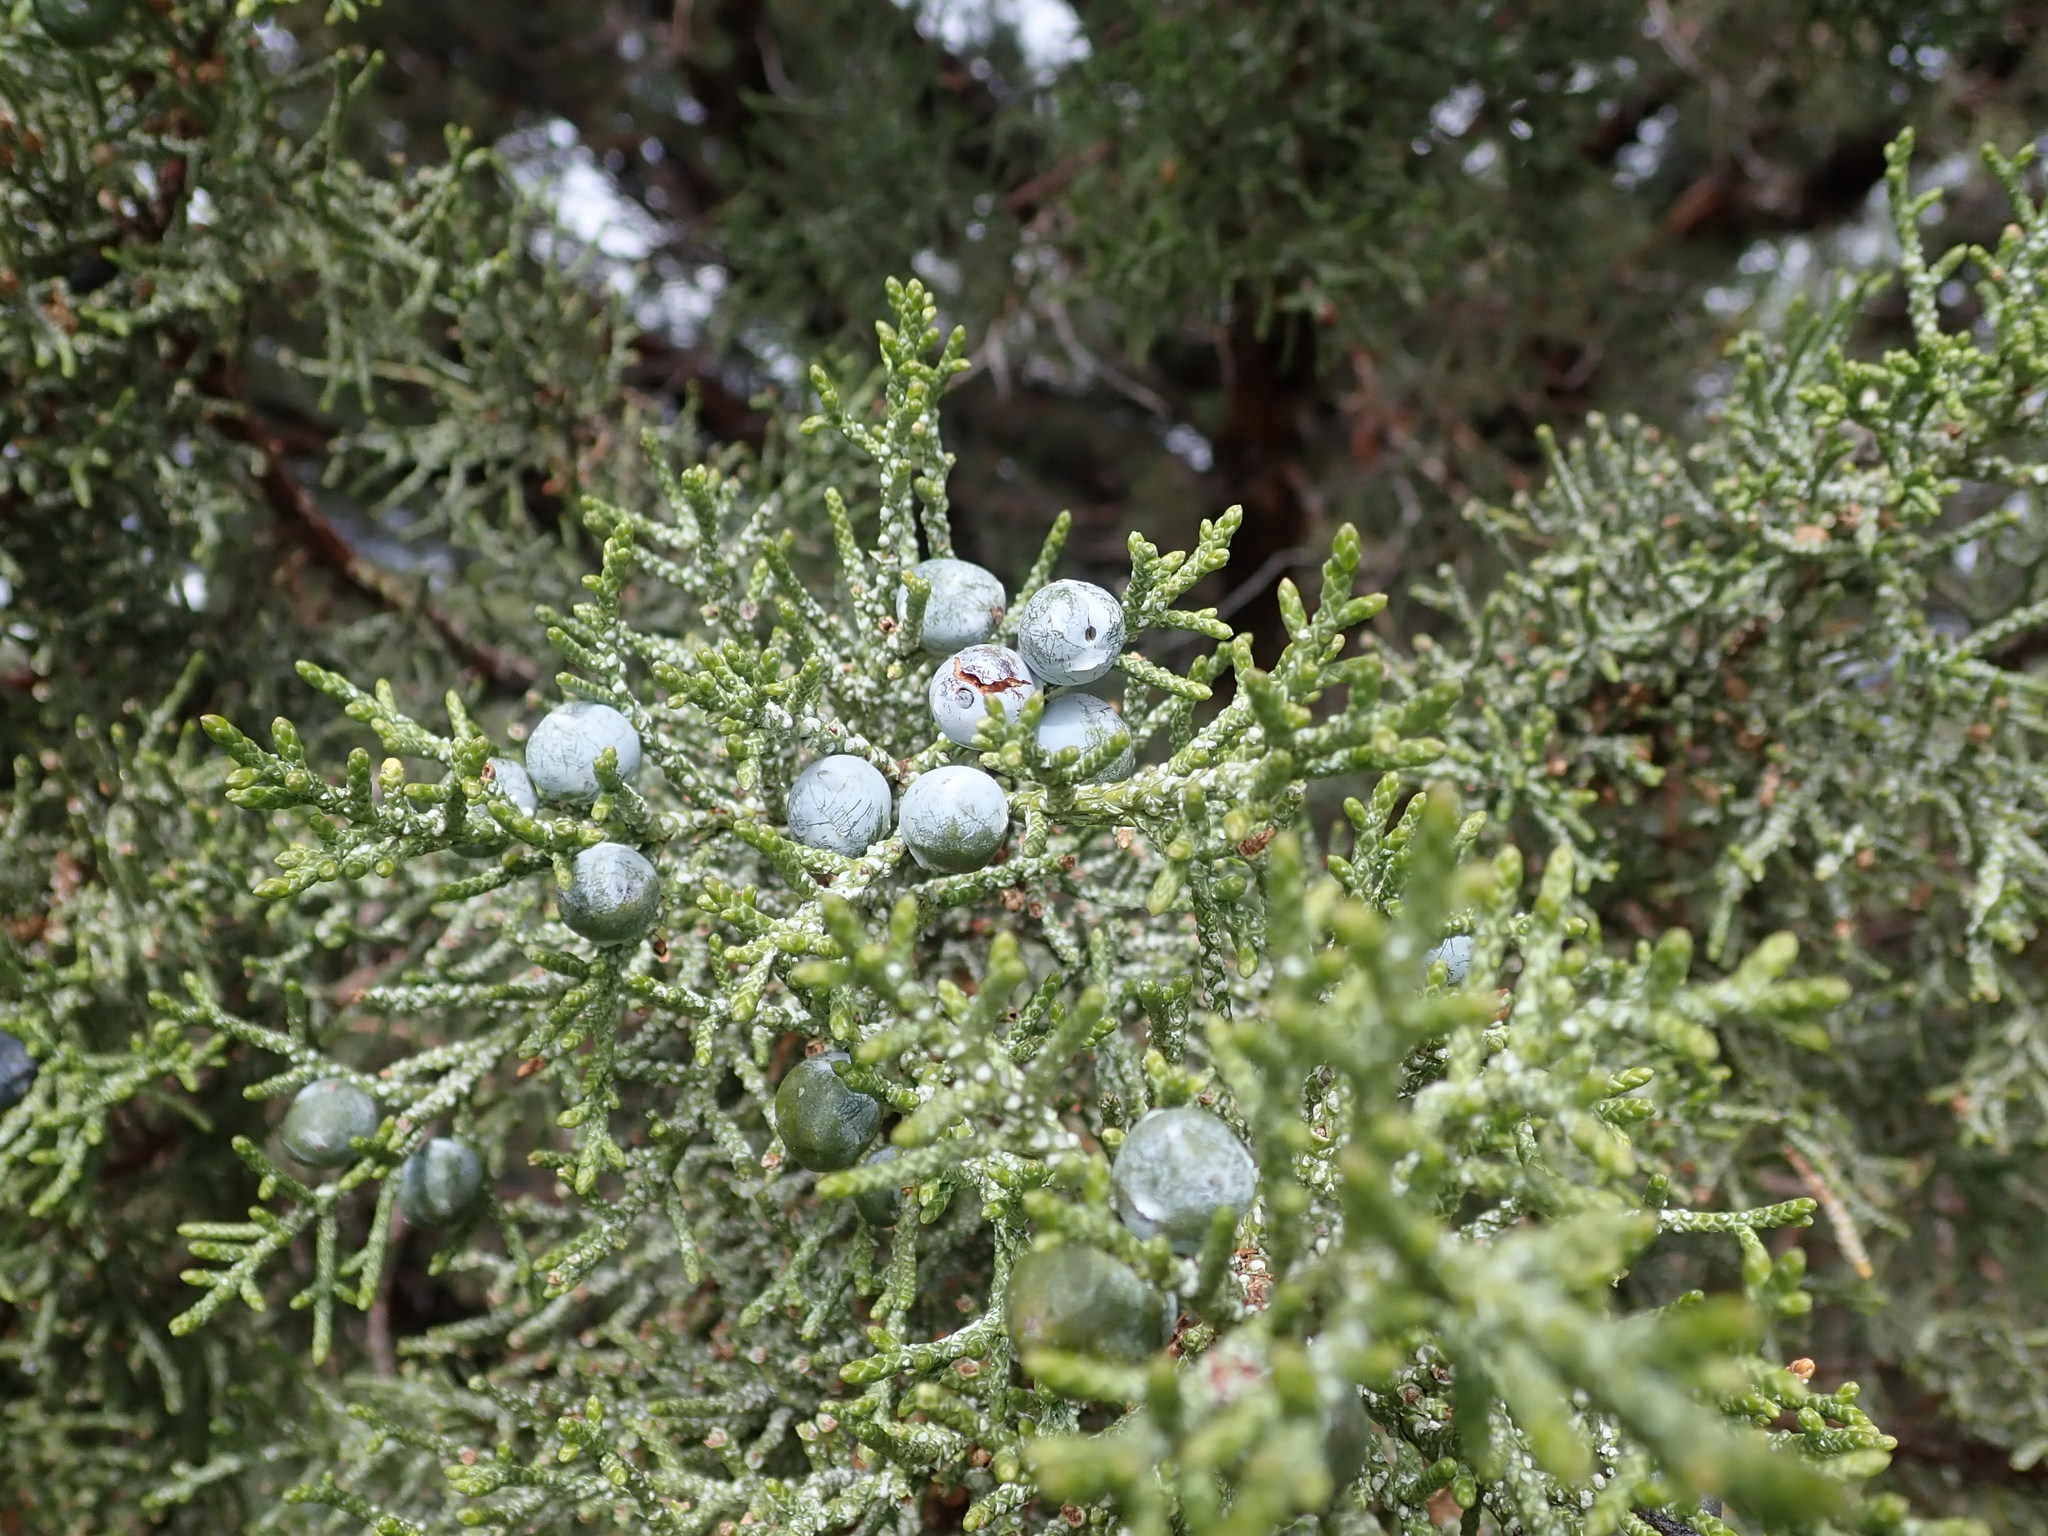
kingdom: Plantae
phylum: Tracheophyta
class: Pinopsida
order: Pinales
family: Cupressaceae
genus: Juniperus
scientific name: Juniperus occidentalis
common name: Western juniper
